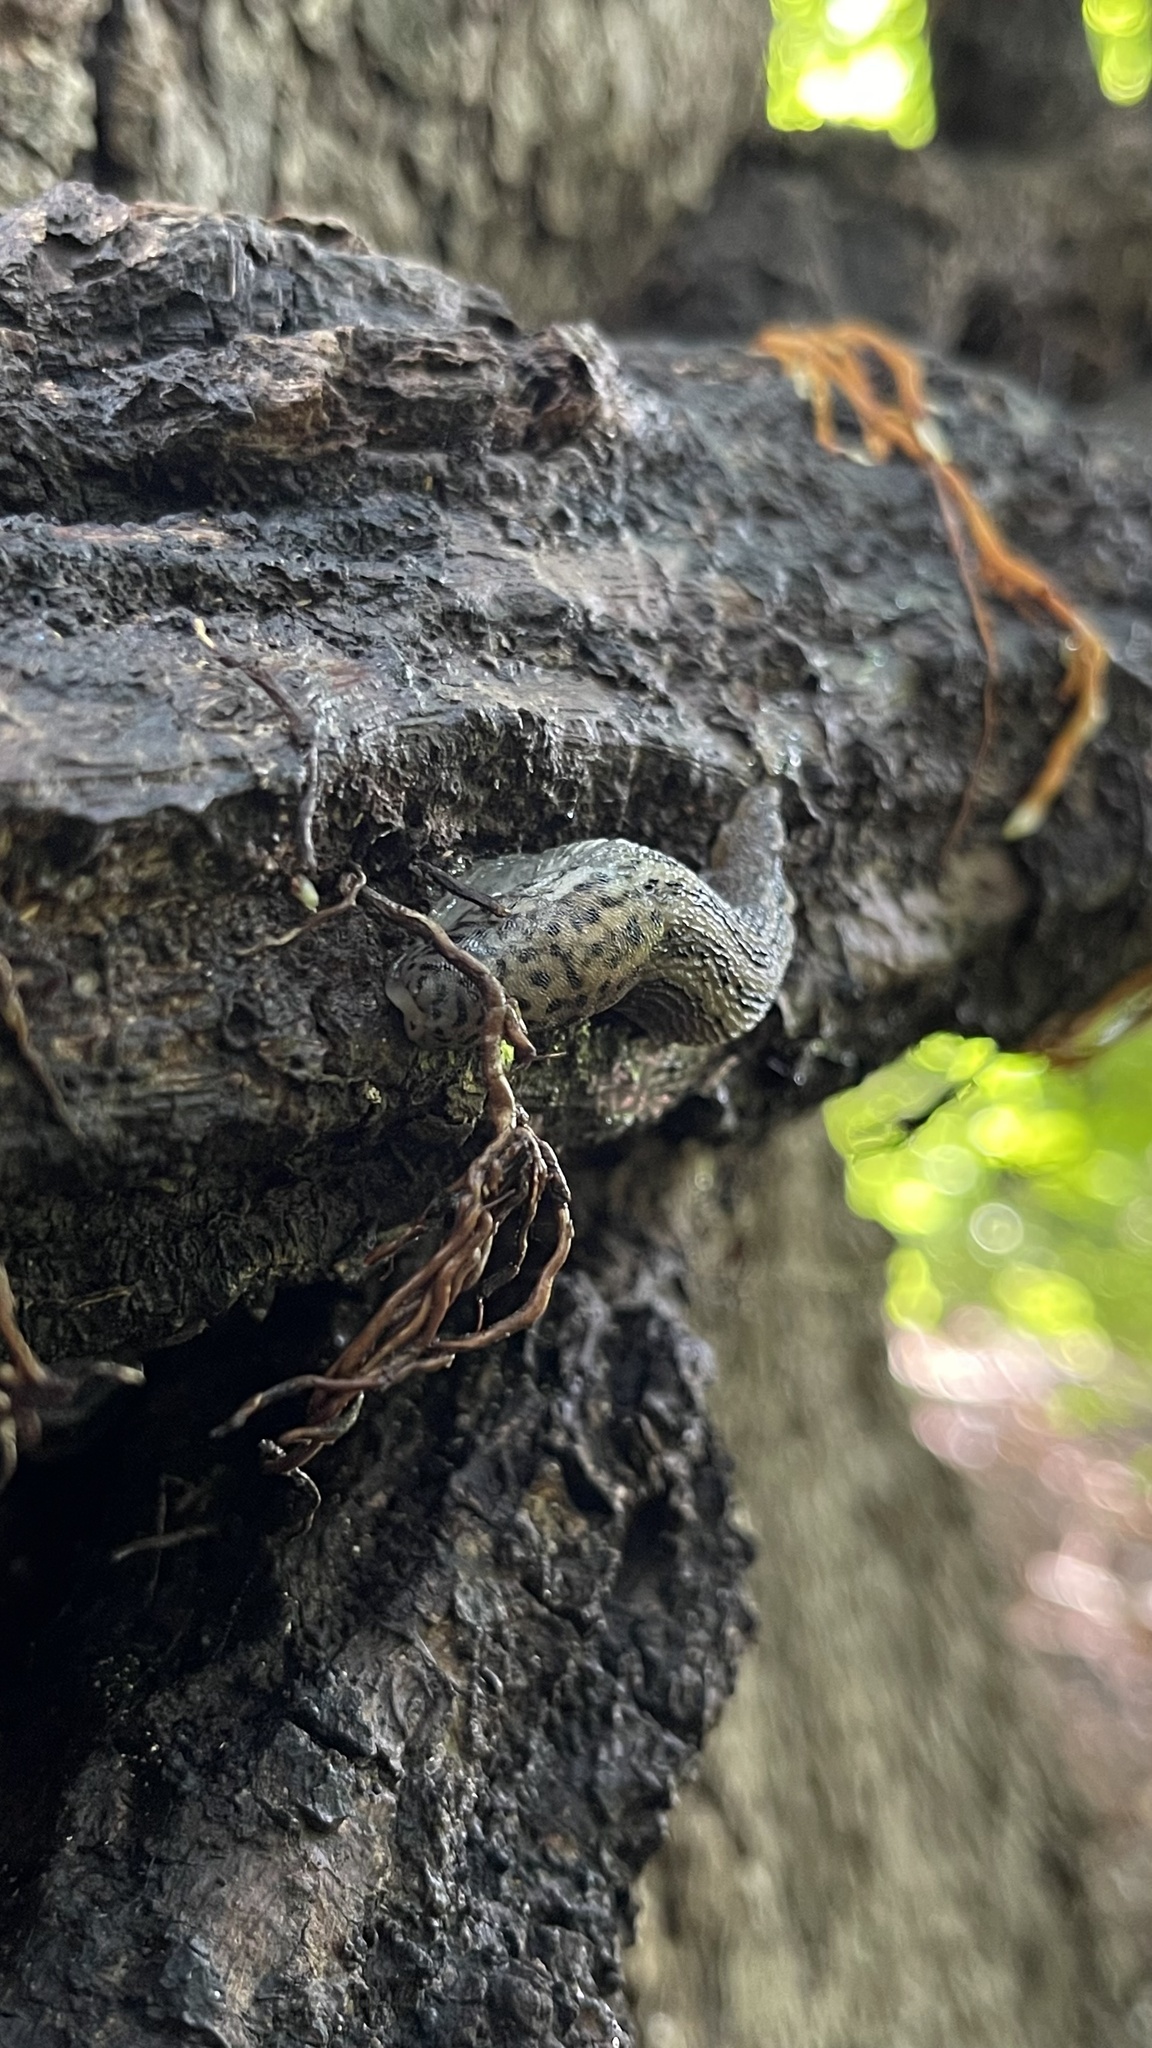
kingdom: Animalia
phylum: Mollusca
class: Gastropoda
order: Stylommatophora
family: Limacidae
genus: Limax
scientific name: Limax maximus
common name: Great grey slug
